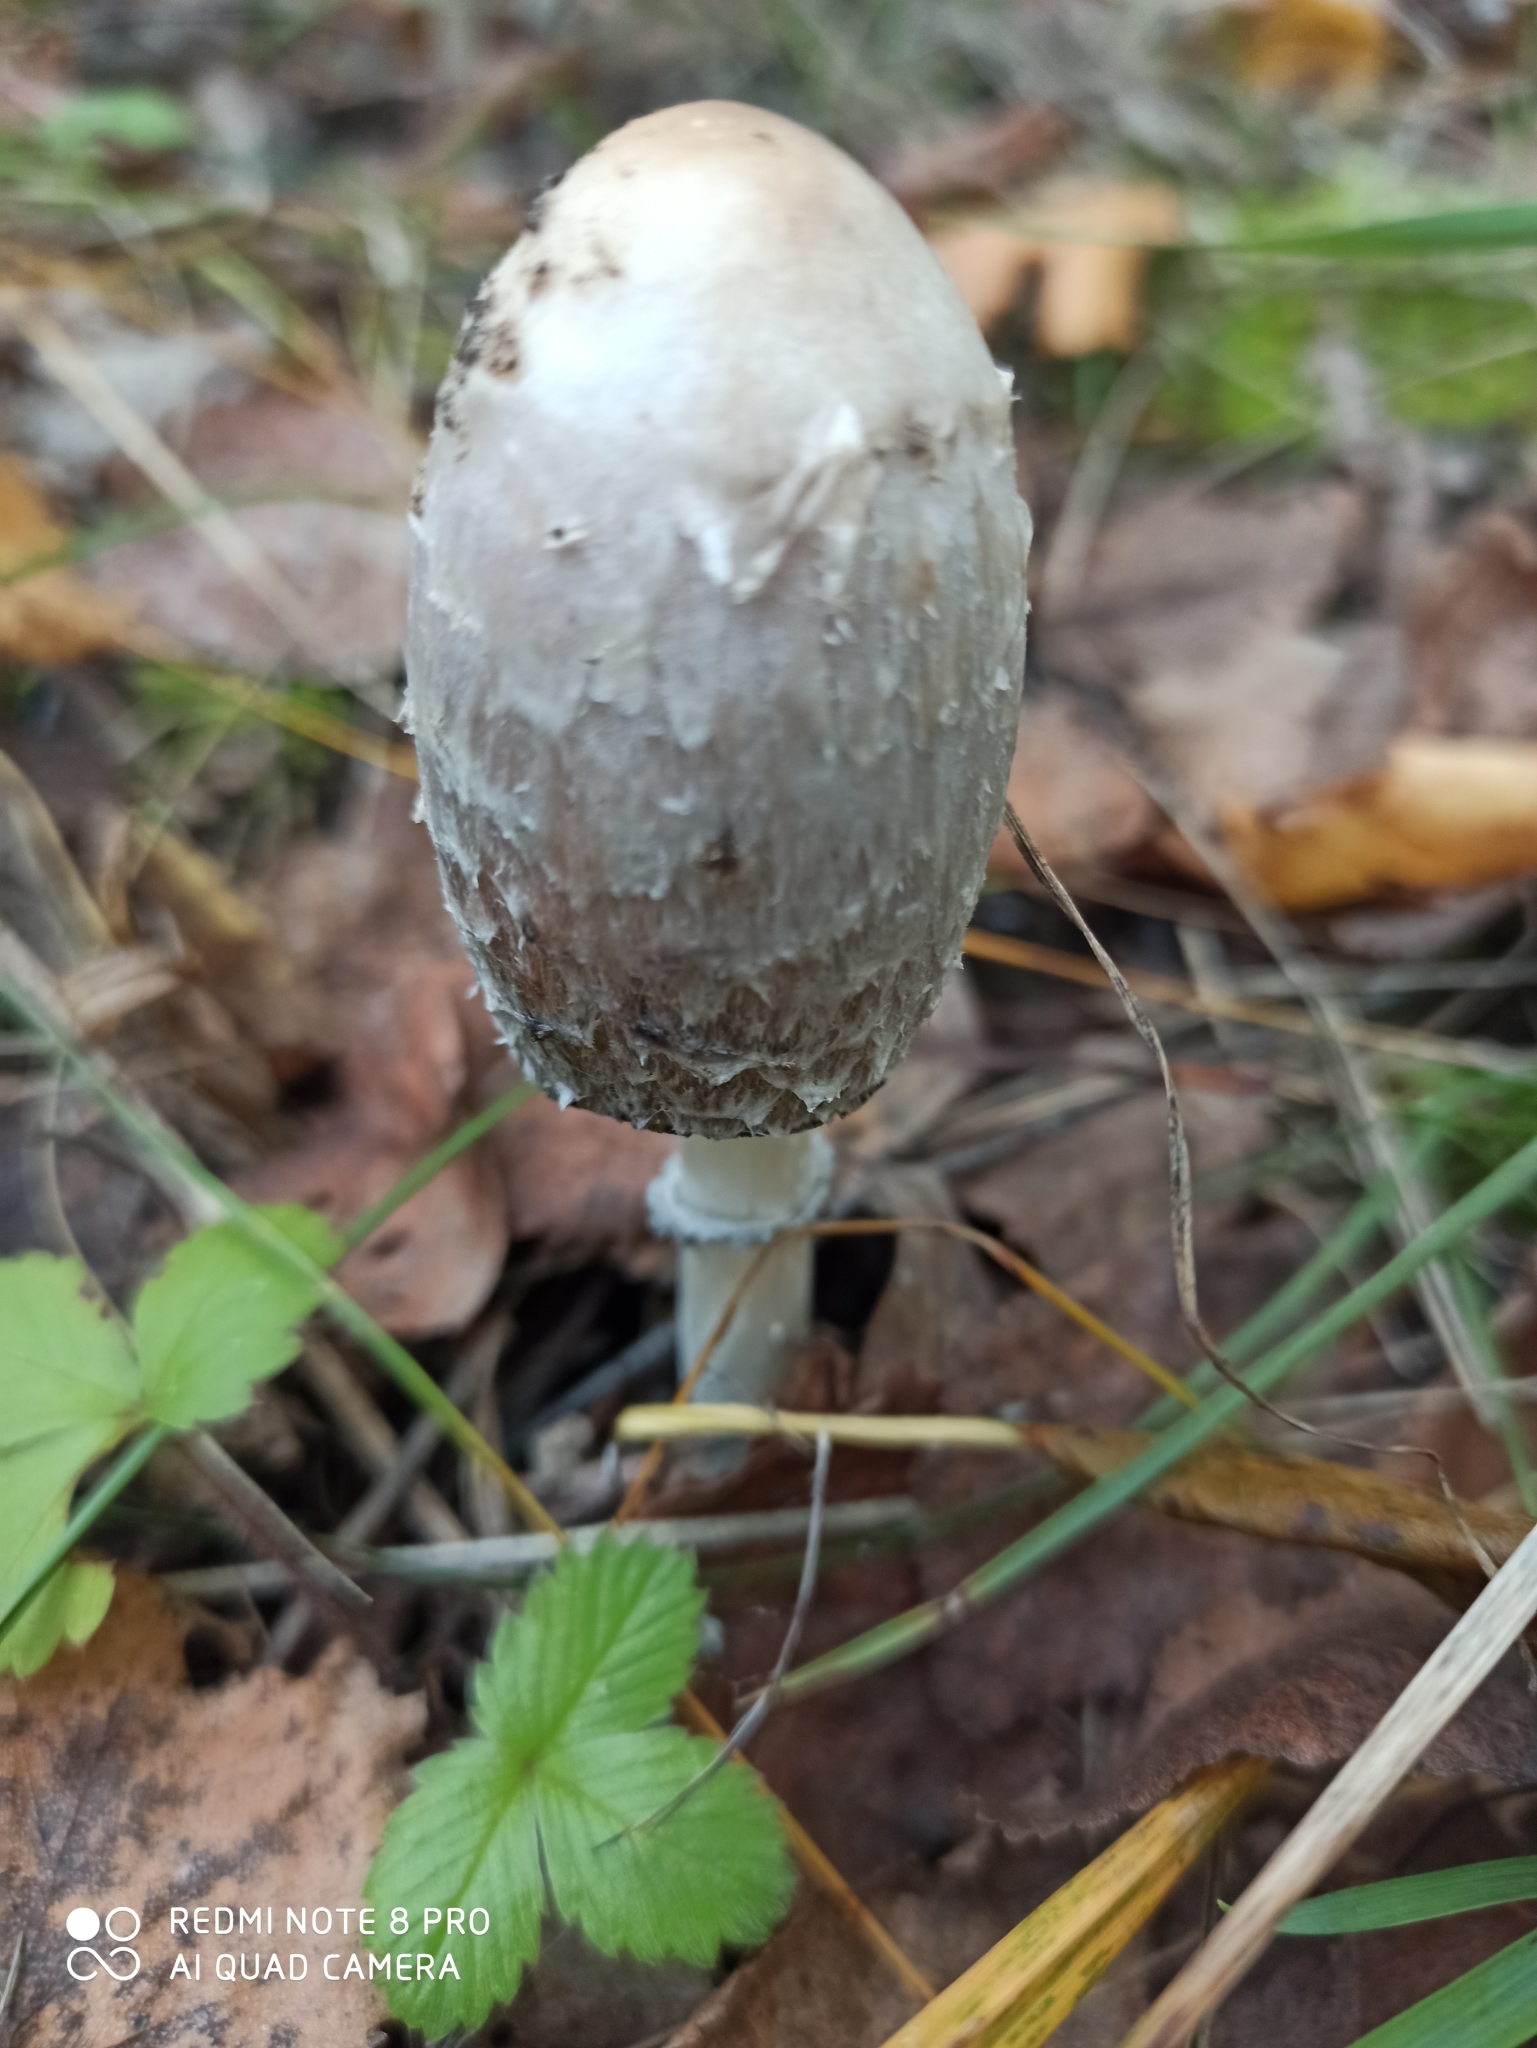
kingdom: Fungi
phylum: Basidiomycota
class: Agaricomycetes
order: Agaricales
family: Agaricaceae
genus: Coprinus
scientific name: Coprinus comatus
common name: Lawyer's wig
